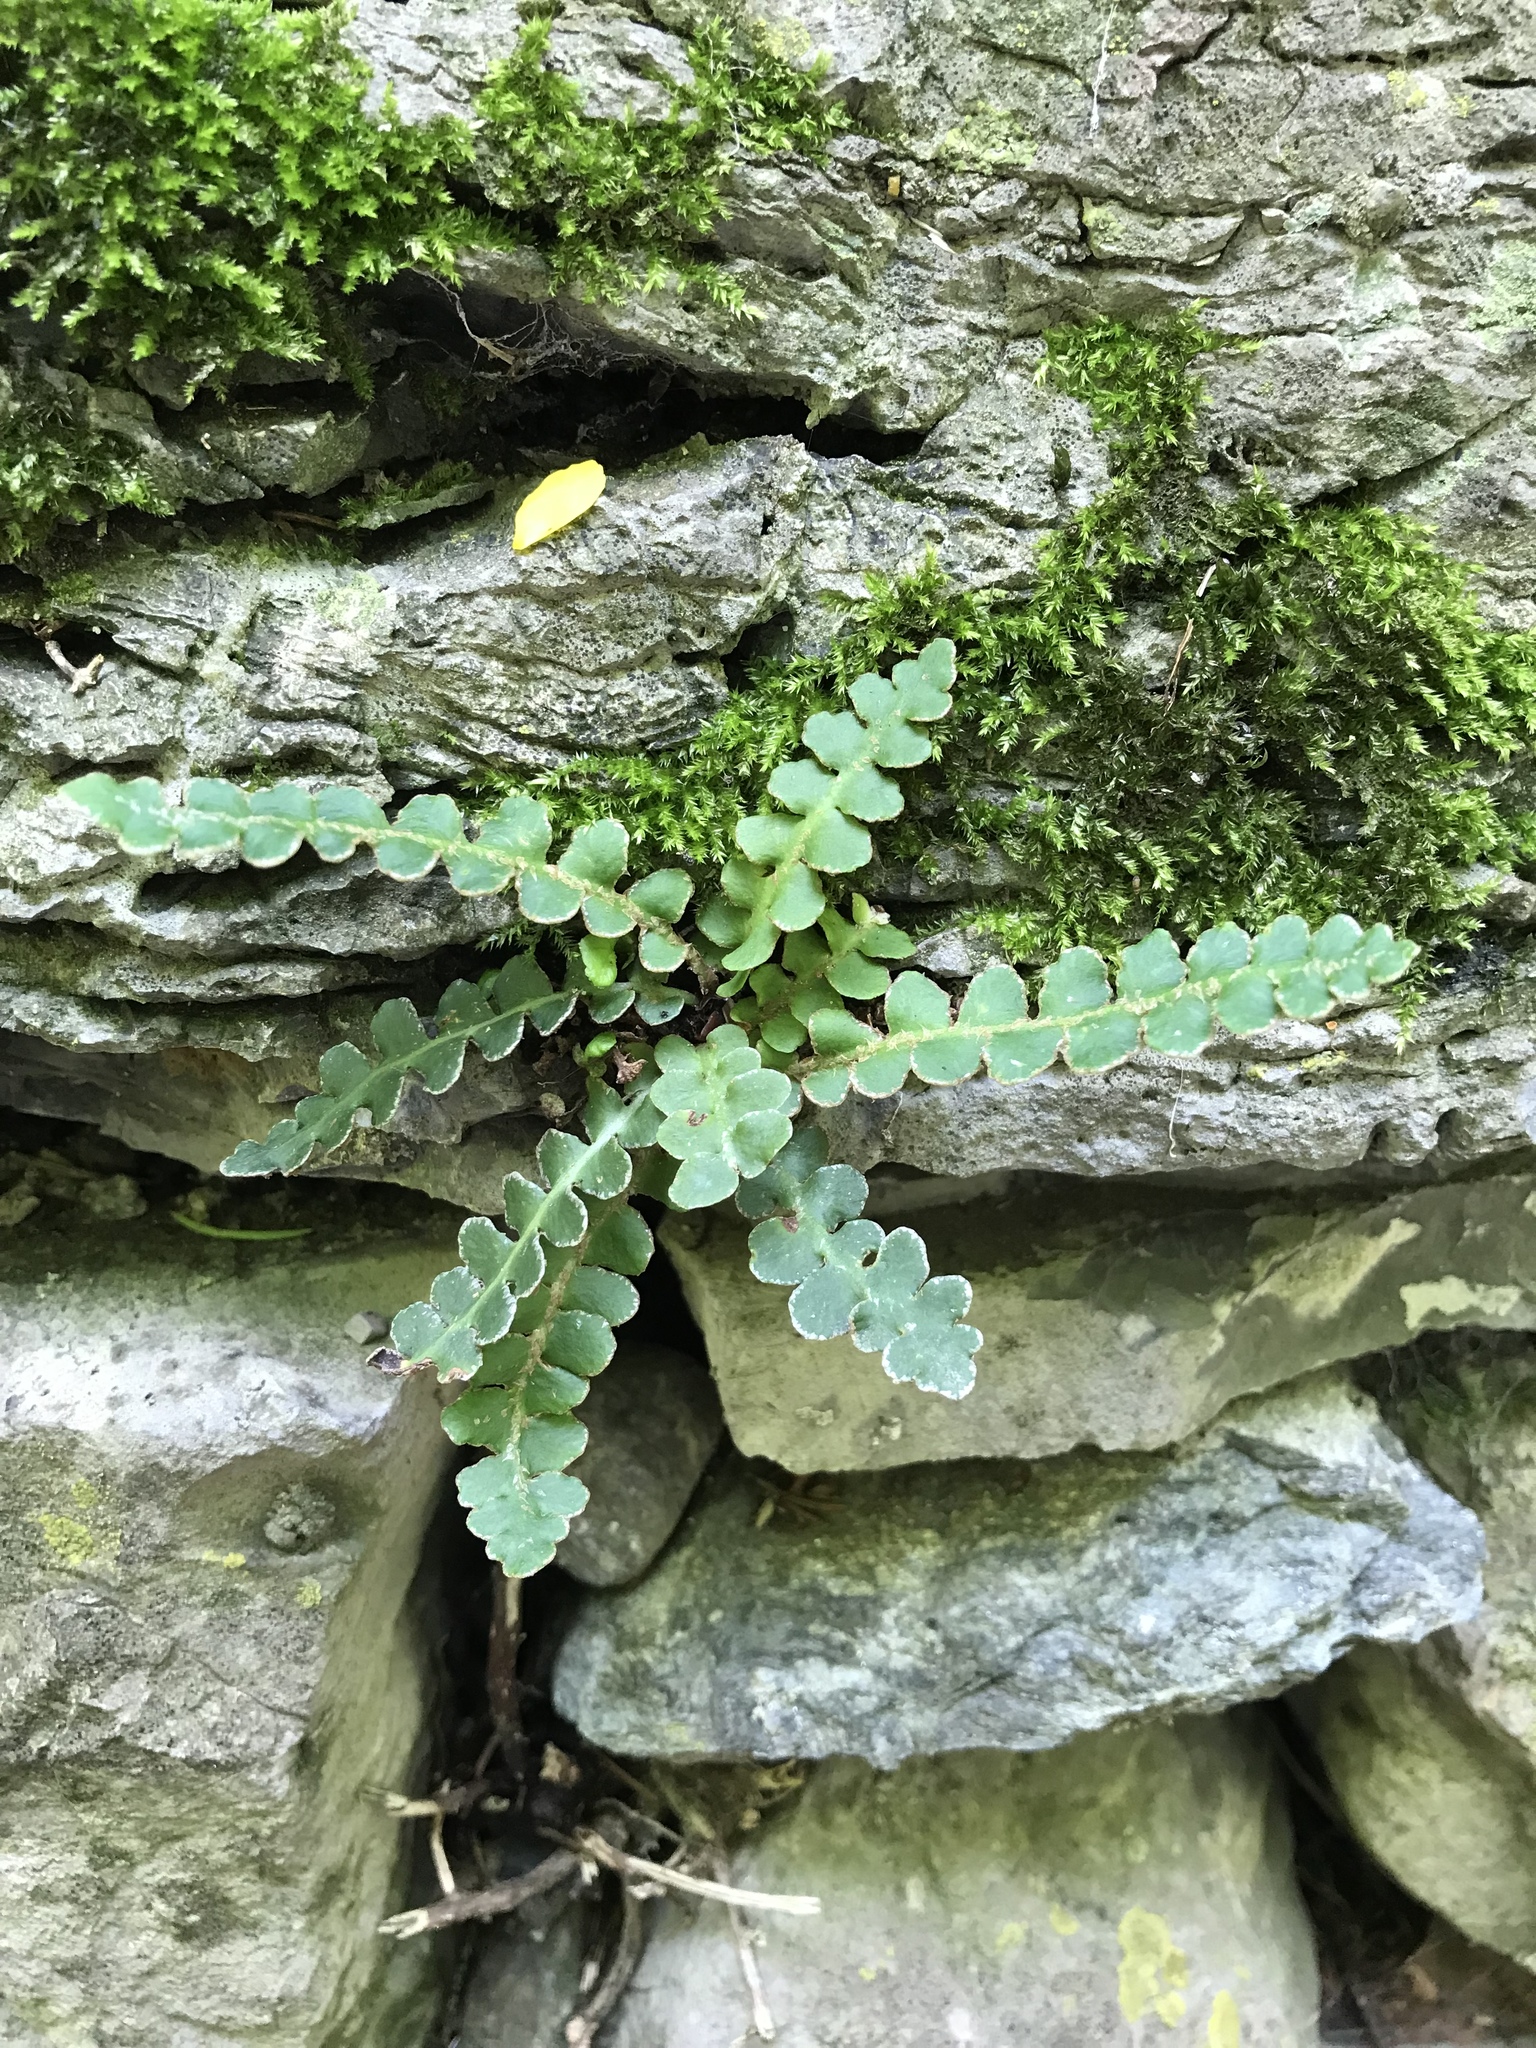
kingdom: Plantae
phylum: Tracheophyta
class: Polypodiopsida
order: Polypodiales
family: Aspleniaceae
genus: Asplenium
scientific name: Asplenium ceterach
